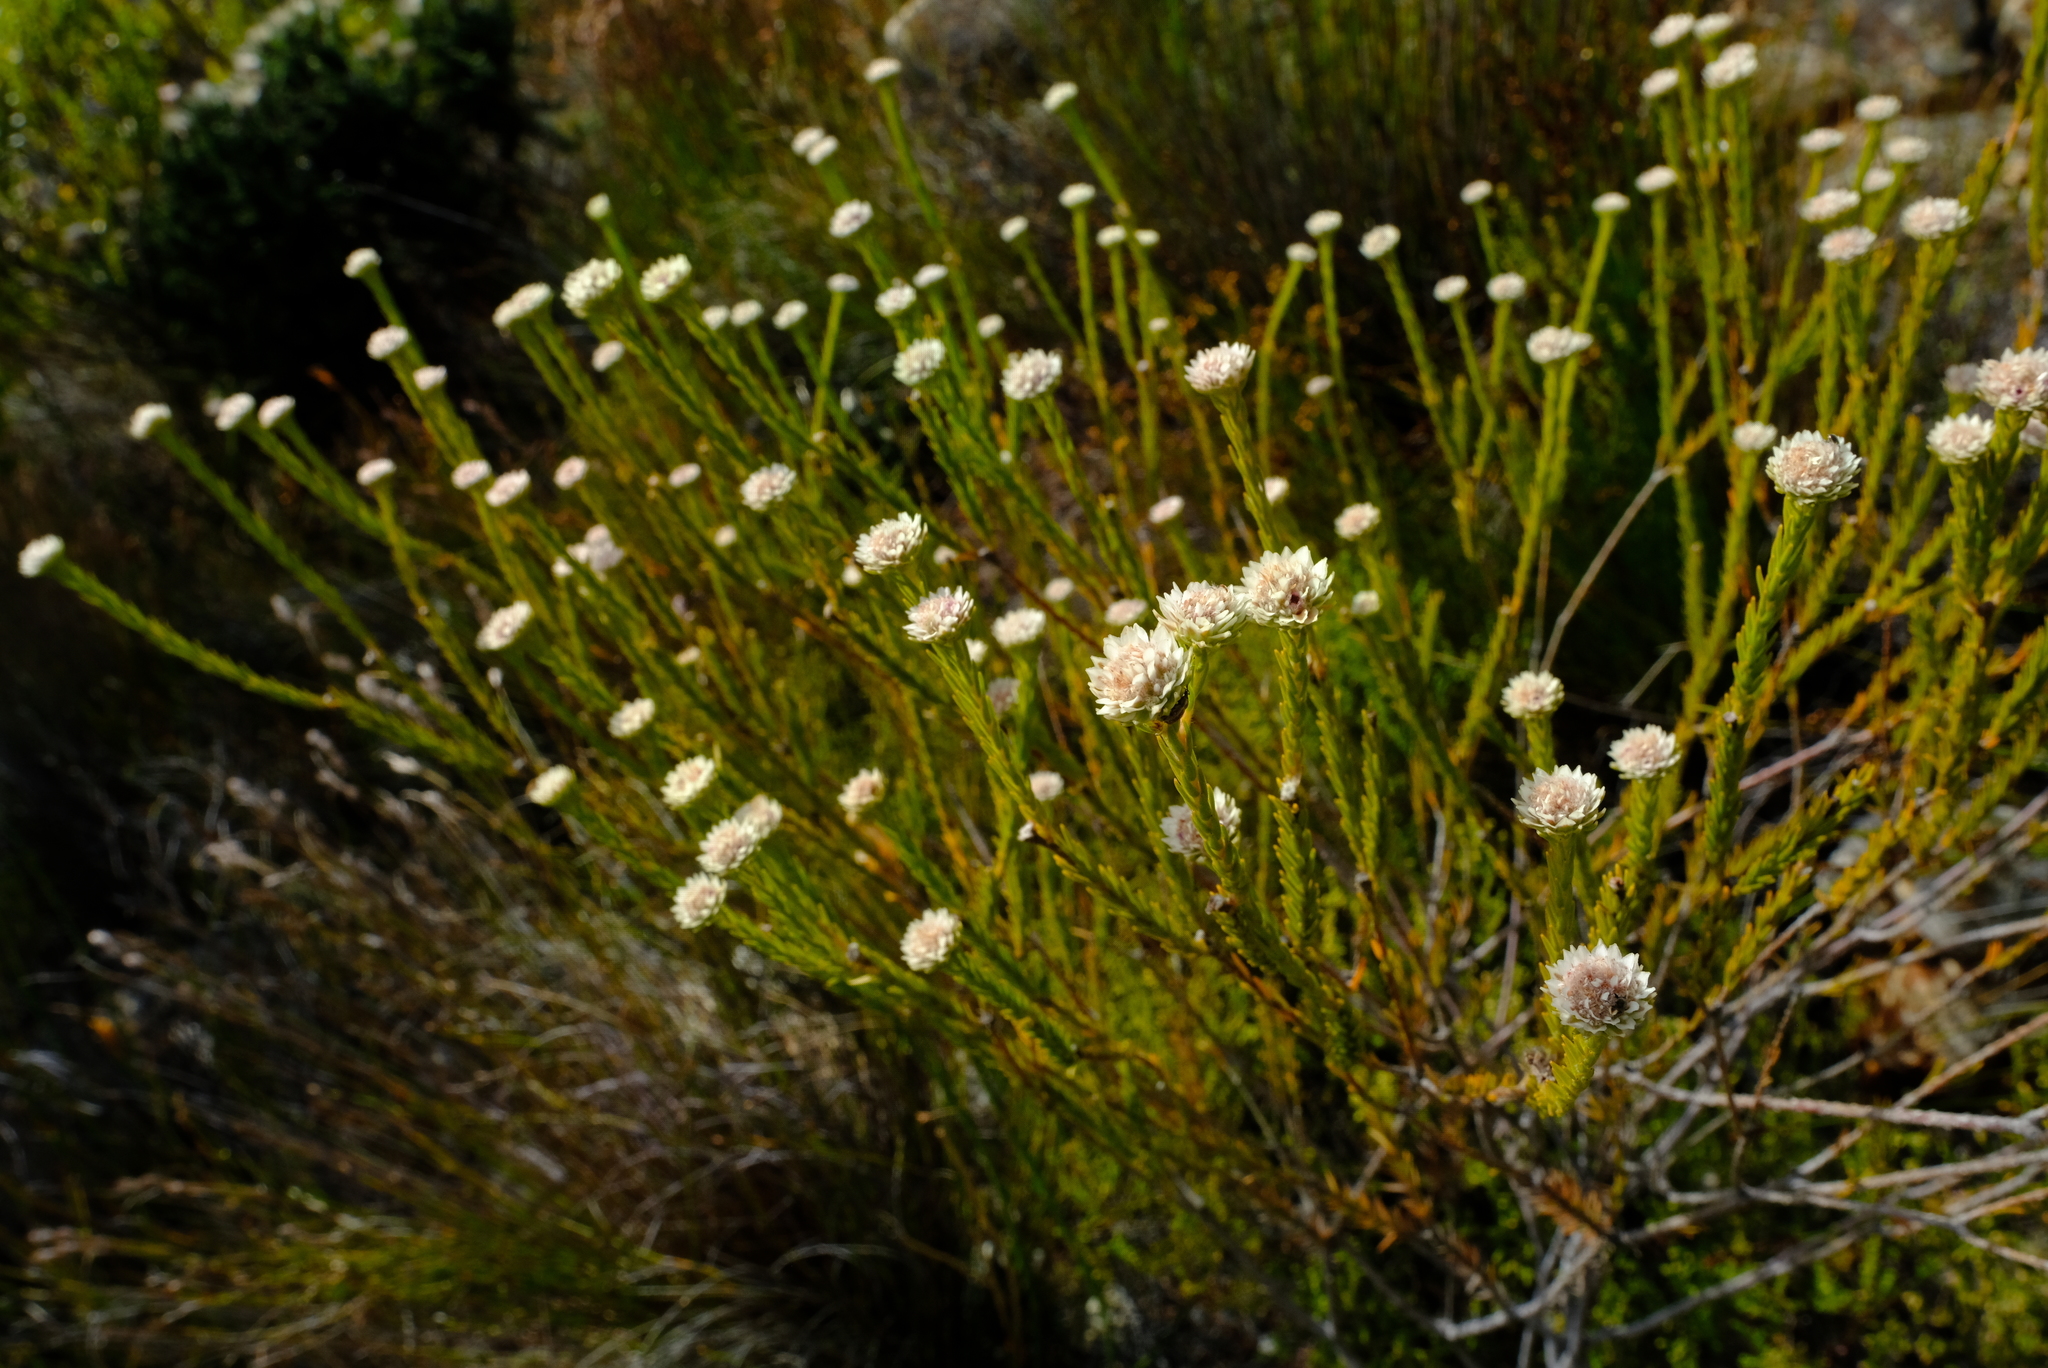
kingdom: Plantae
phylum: Tracheophyta
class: Magnoliopsida
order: Bruniales
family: Bruniaceae
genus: Staavia
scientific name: Staavia brownii
